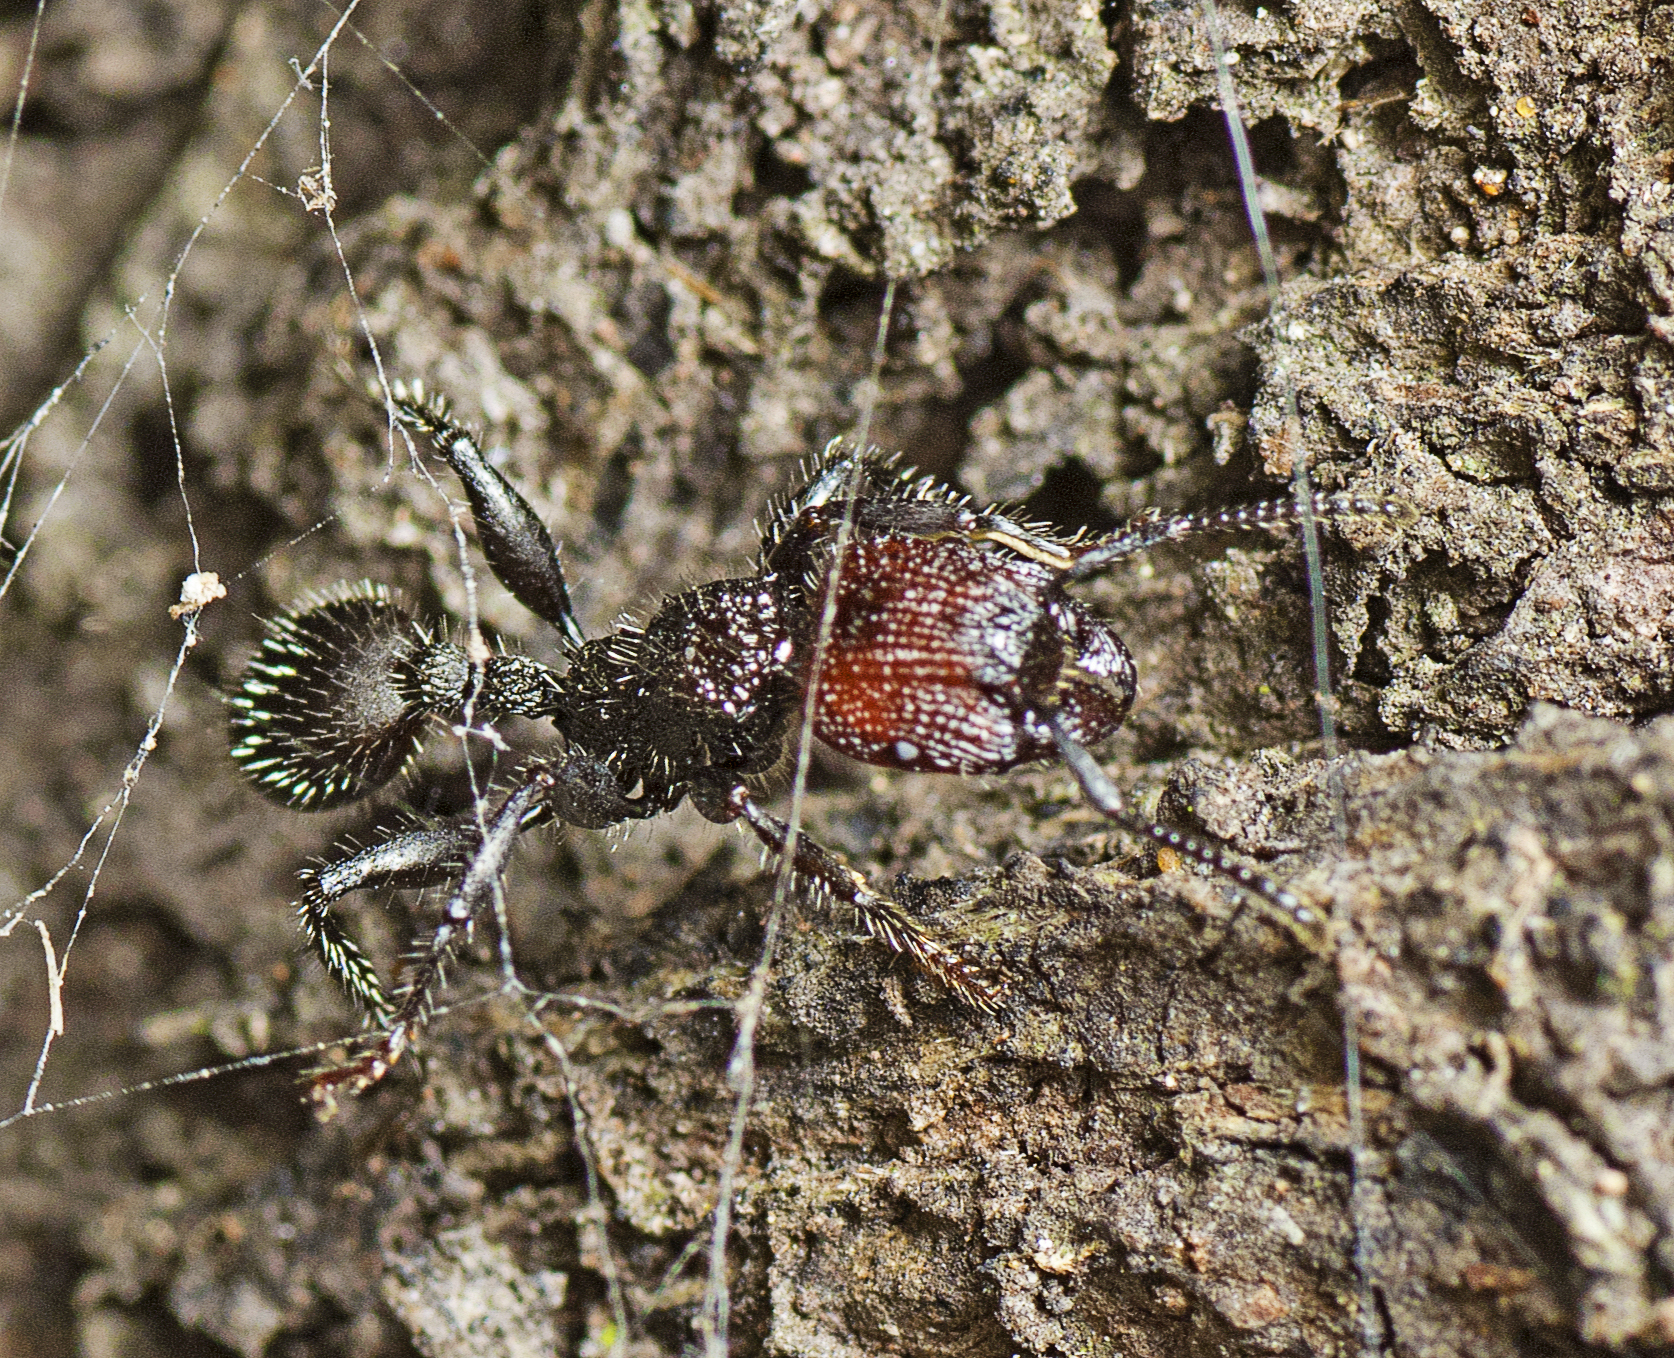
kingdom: Animalia
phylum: Arthropoda
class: Insecta
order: Hymenoptera
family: Formicidae
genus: Podomyrma
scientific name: Podomyrma micans
